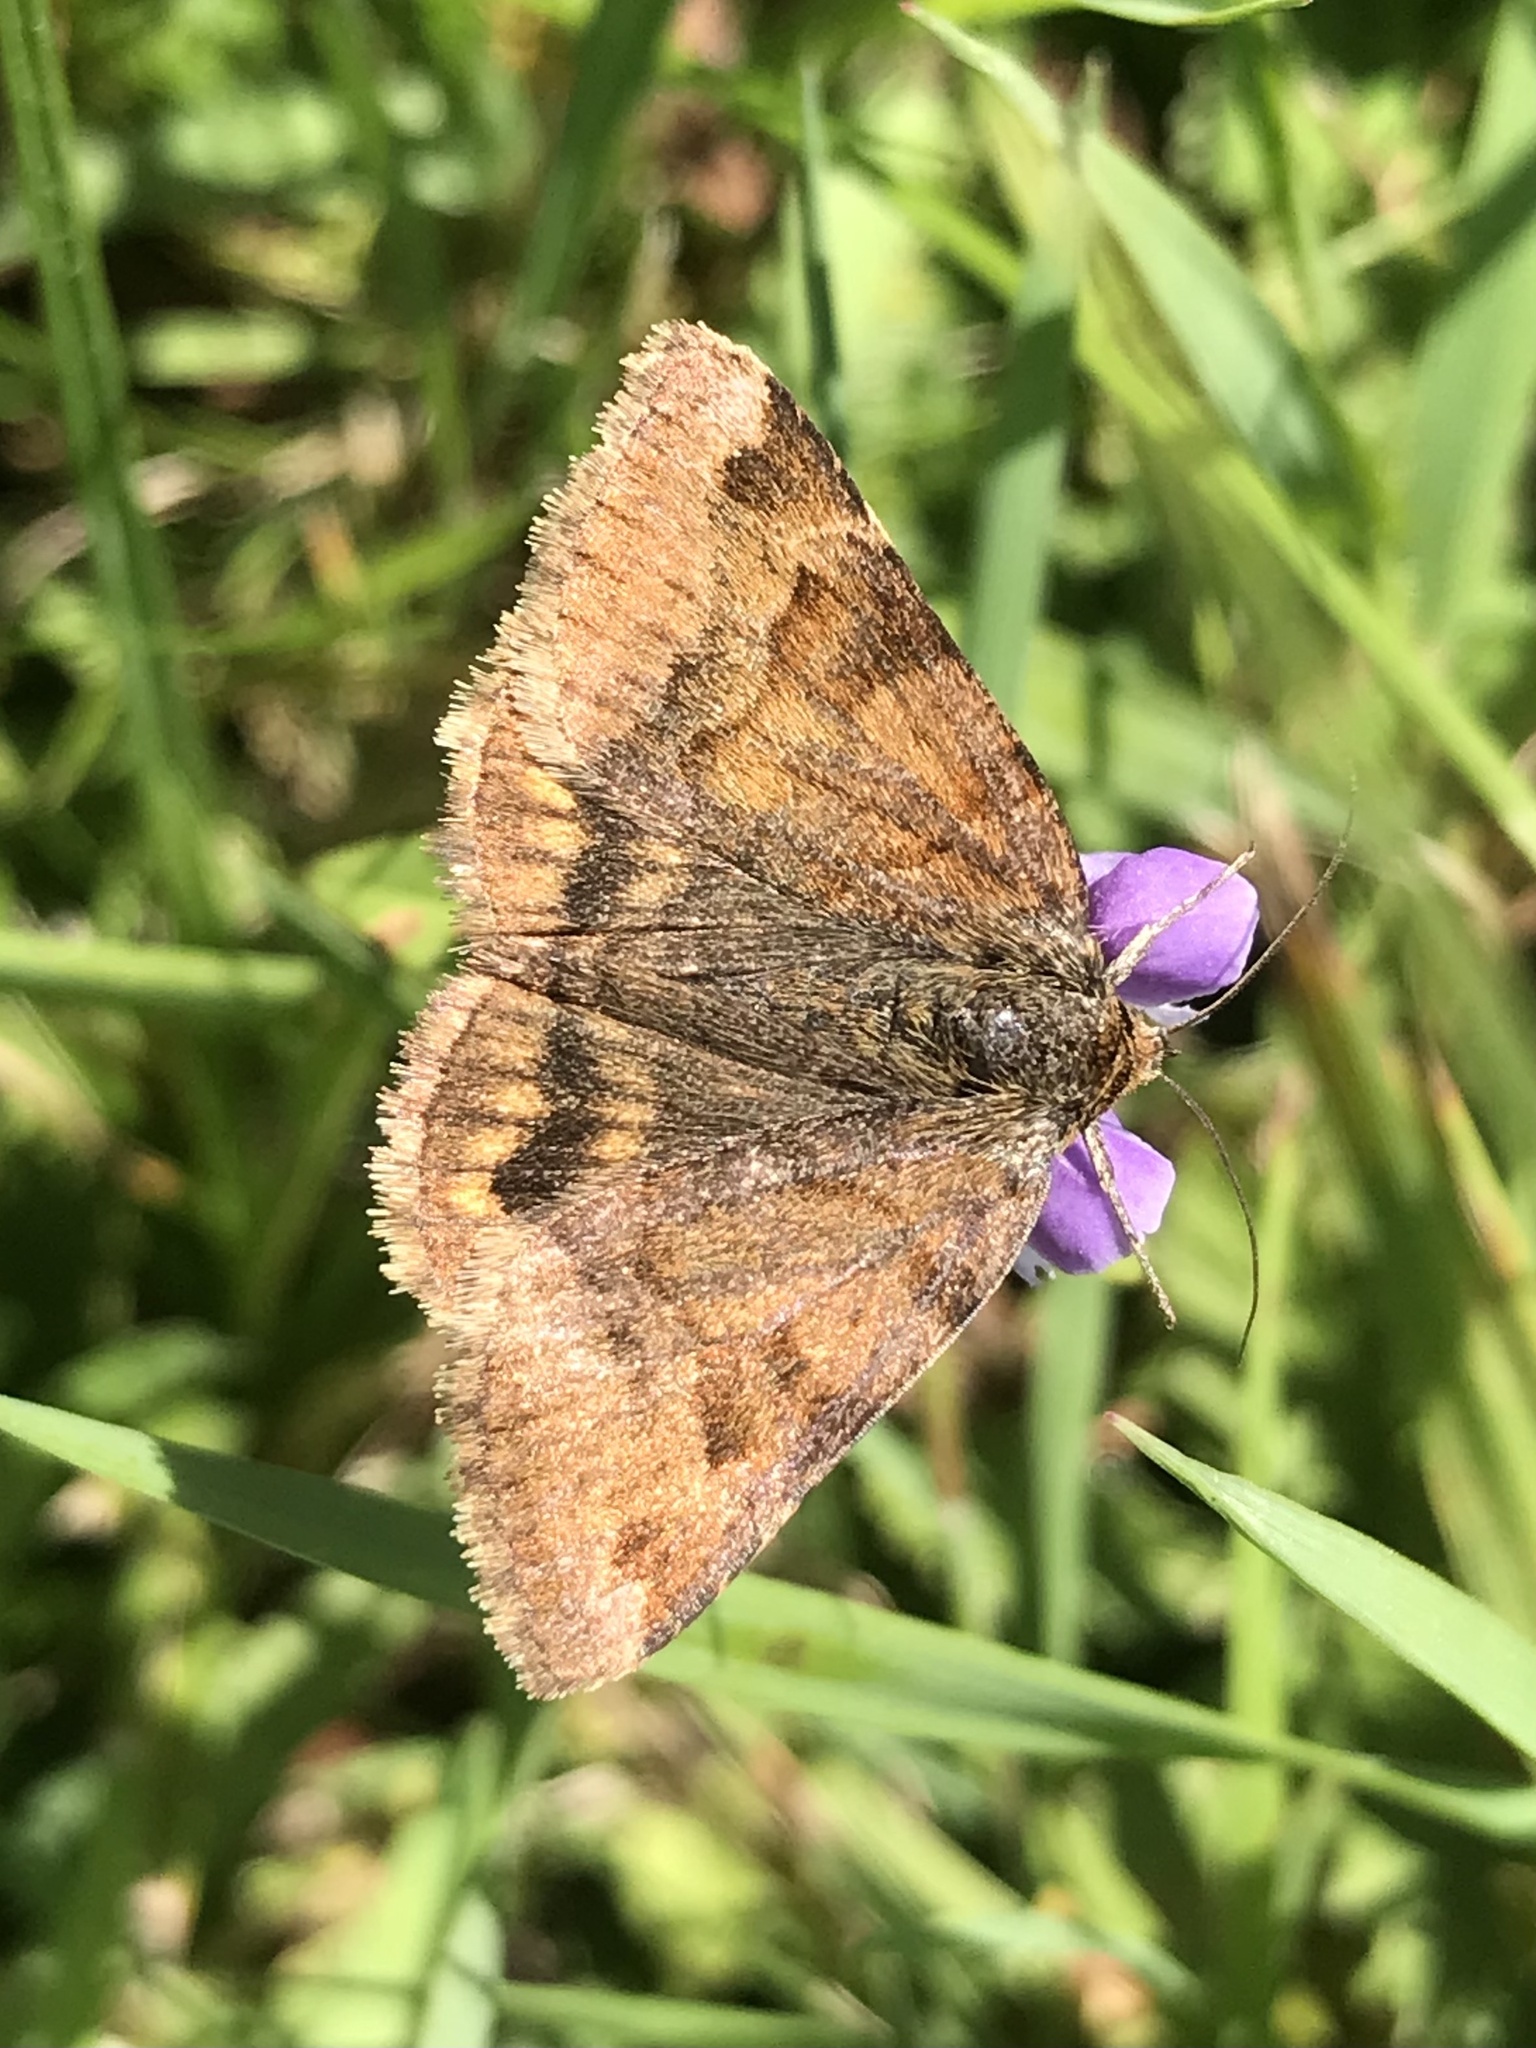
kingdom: Animalia
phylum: Arthropoda
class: Insecta
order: Lepidoptera
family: Erebidae
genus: Euclidia
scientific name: Euclidia glyphica
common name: Burnet companion
